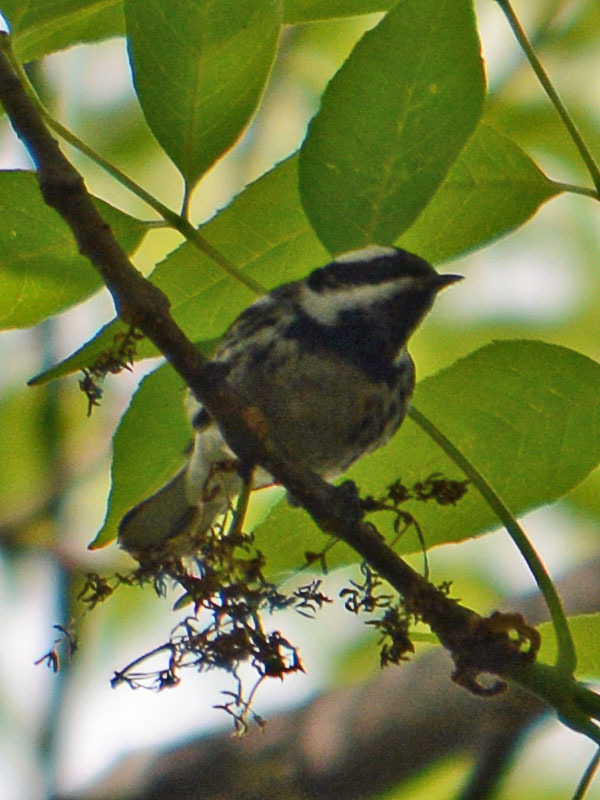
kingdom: Animalia
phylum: Chordata
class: Aves
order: Passeriformes
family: Parulidae
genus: Setophaga
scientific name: Setophaga nigrescens
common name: Black-throated gray warbler
